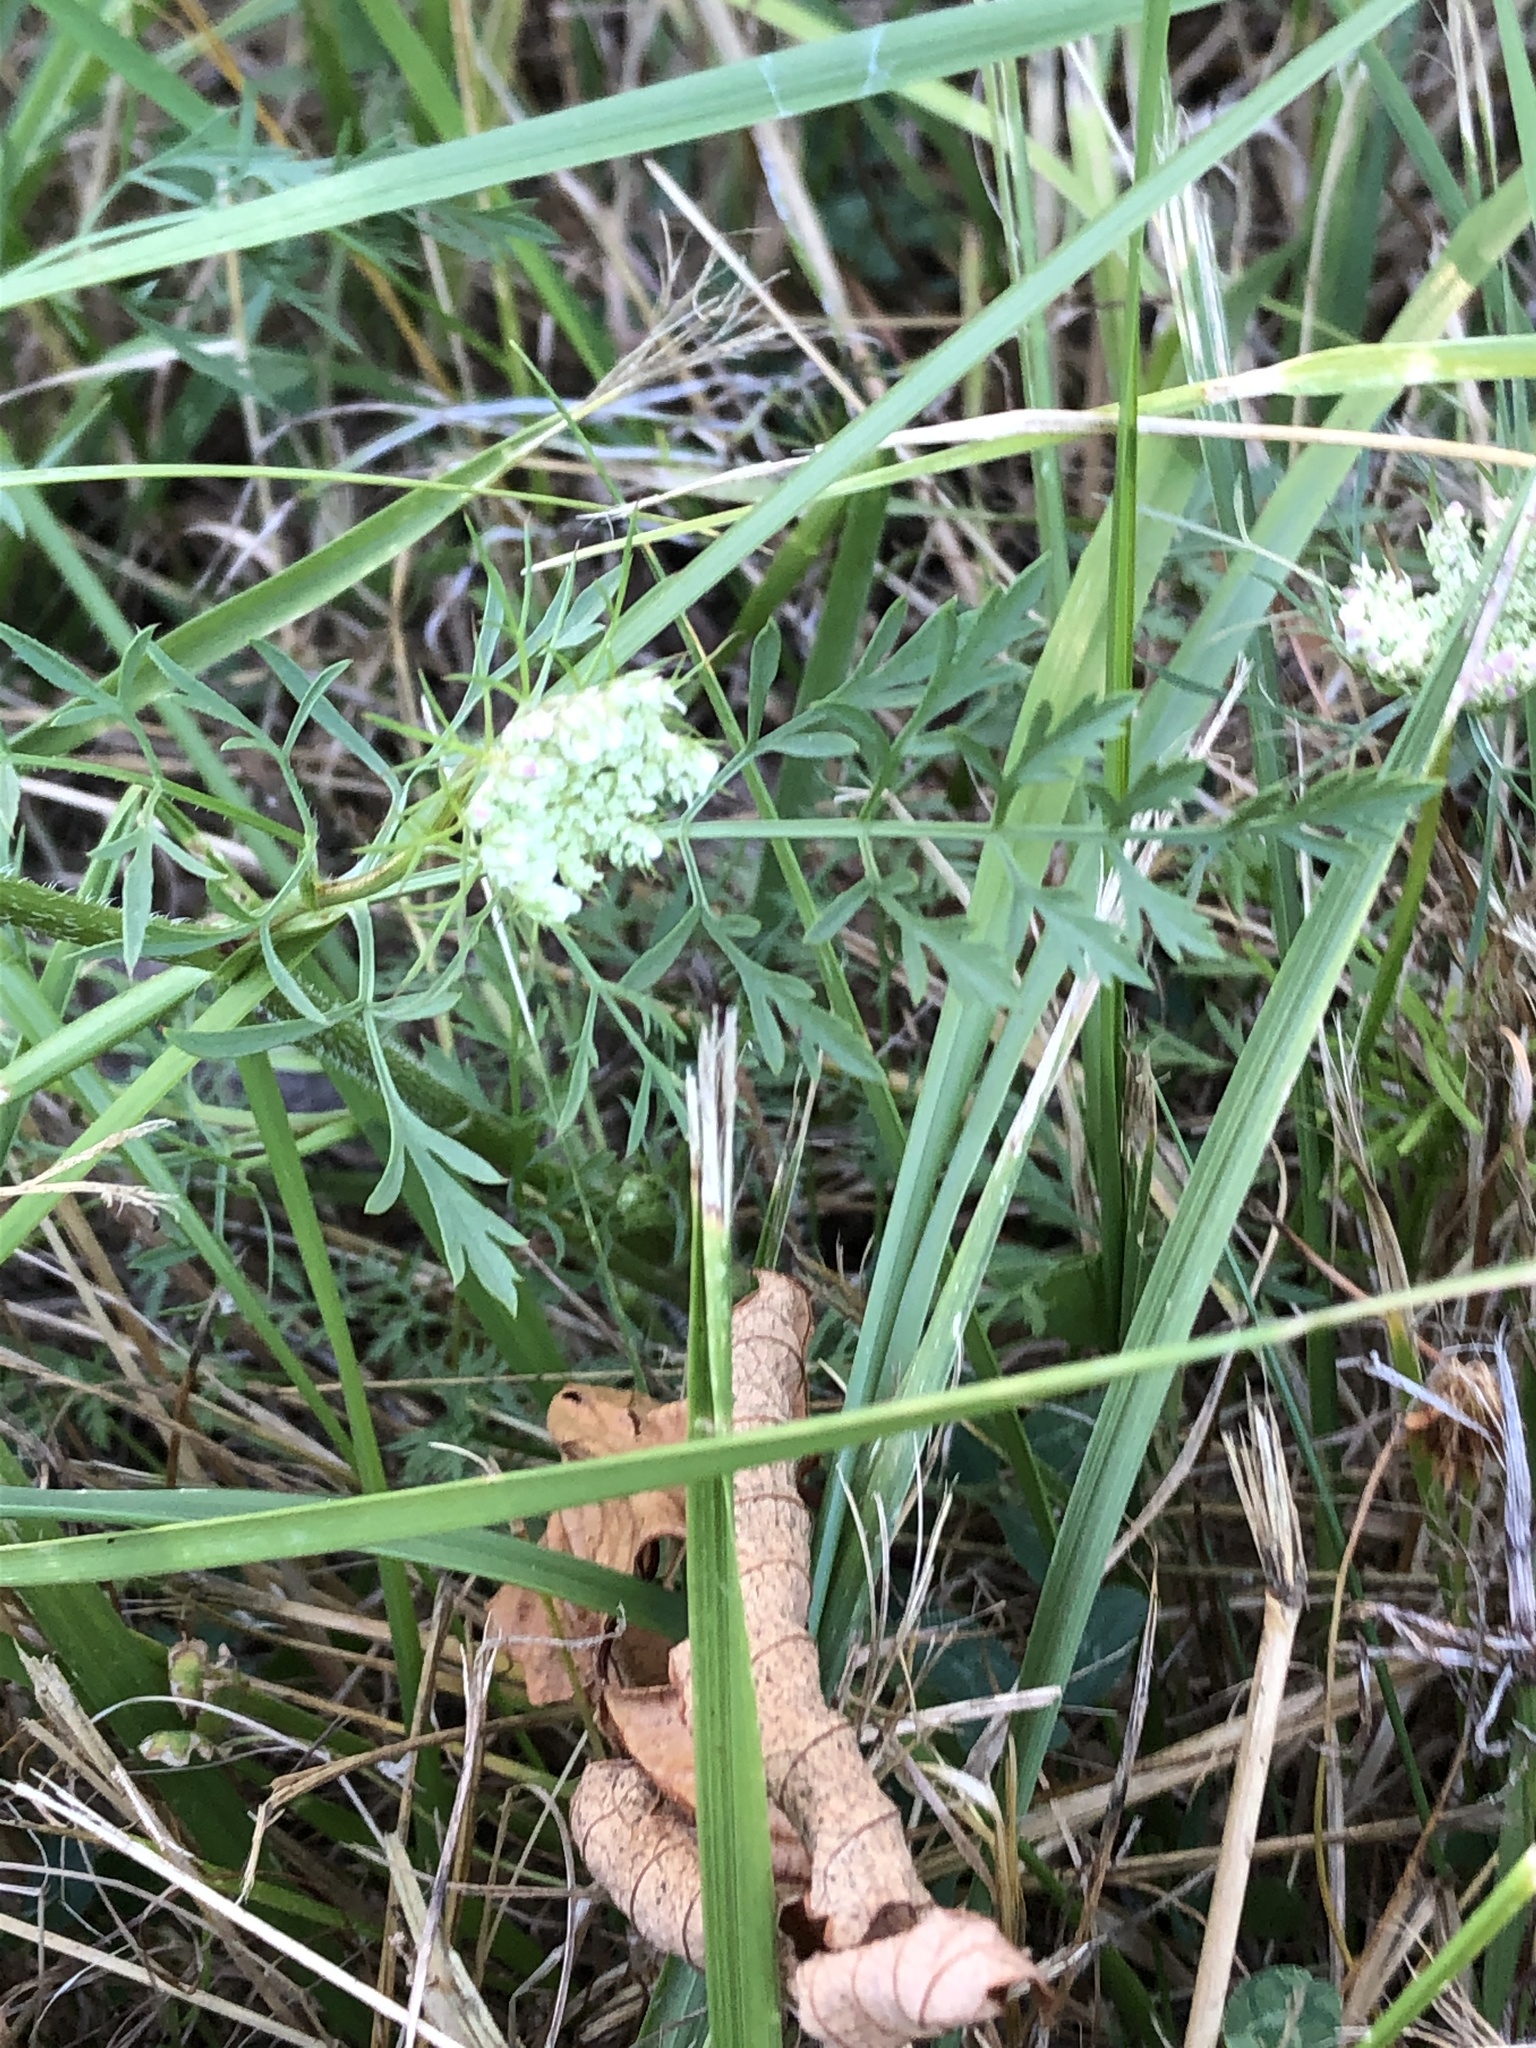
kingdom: Plantae
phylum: Tracheophyta
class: Magnoliopsida
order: Apiales
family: Apiaceae
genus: Daucus
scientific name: Daucus carota
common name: Wild carrot
